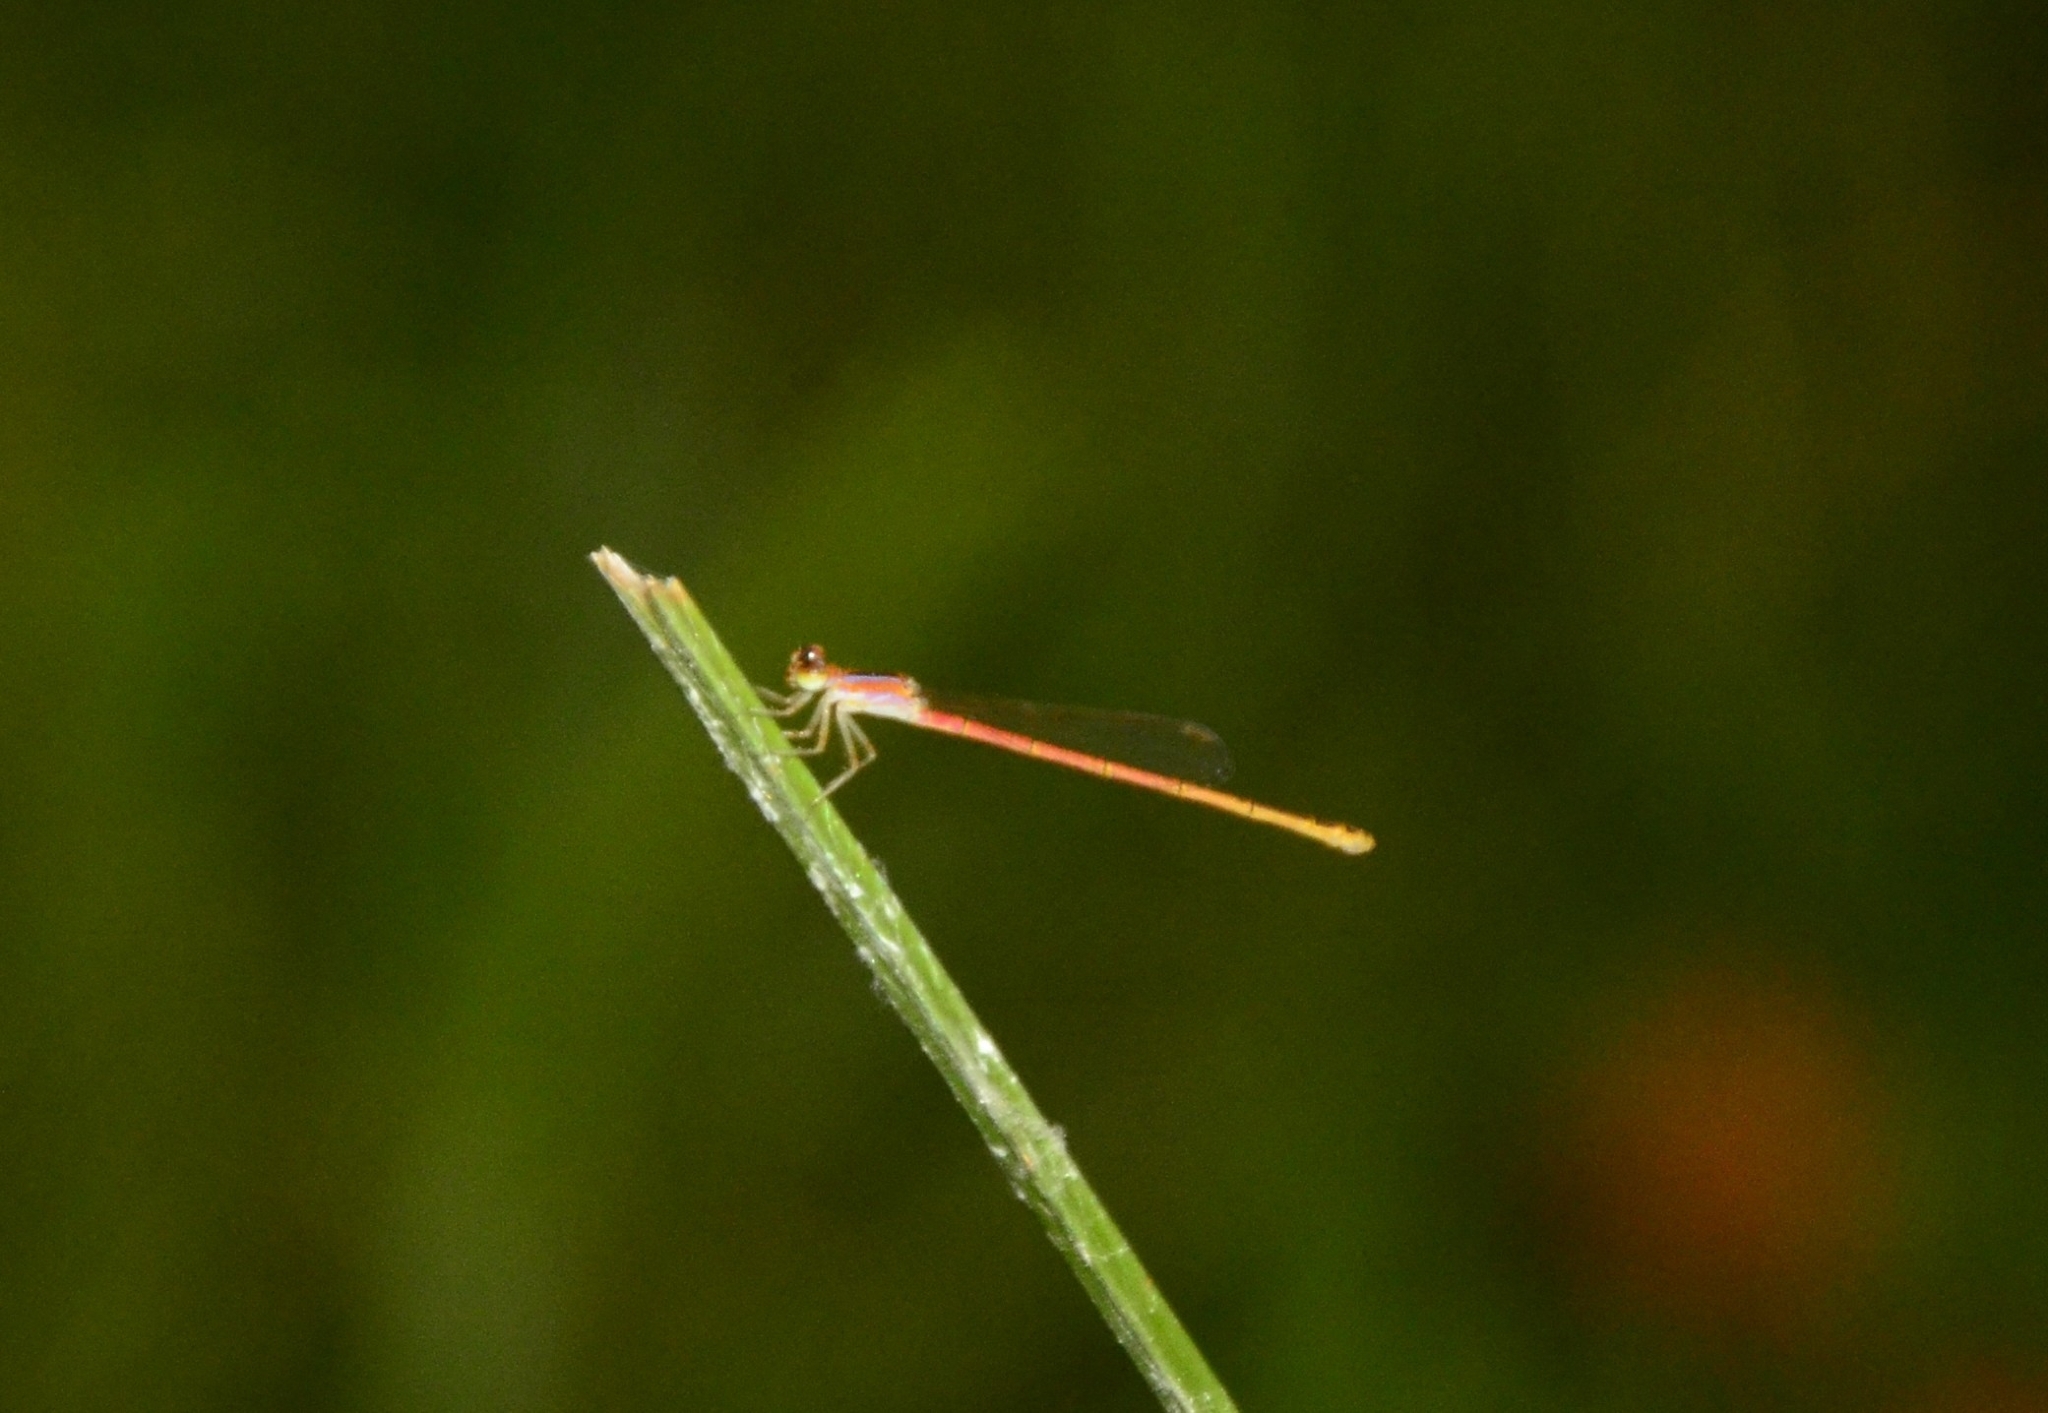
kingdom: Animalia
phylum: Arthropoda
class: Insecta
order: Odonata
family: Coenagrionidae
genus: Agriocnemis
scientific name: Agriocnemis pygmaea
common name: Pygmy wisp
